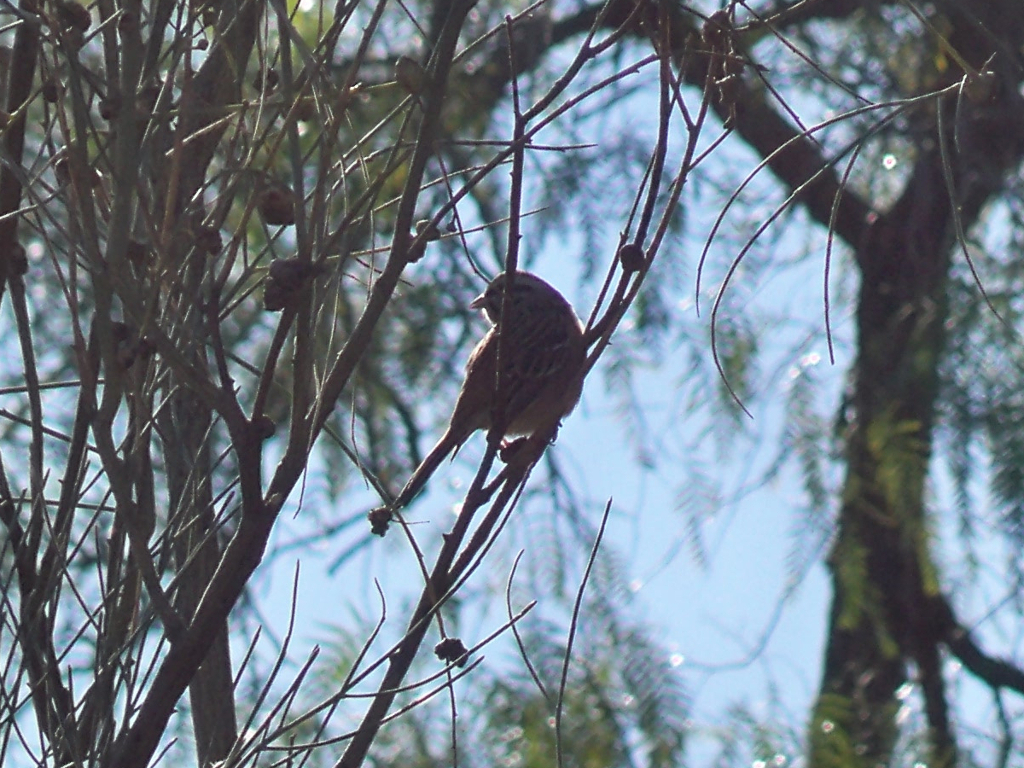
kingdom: Animalia
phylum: Chordata
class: Aves
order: Passeriformes
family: Emberizidae
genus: Emberiza
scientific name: Emberiza cia
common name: Rock bunting
